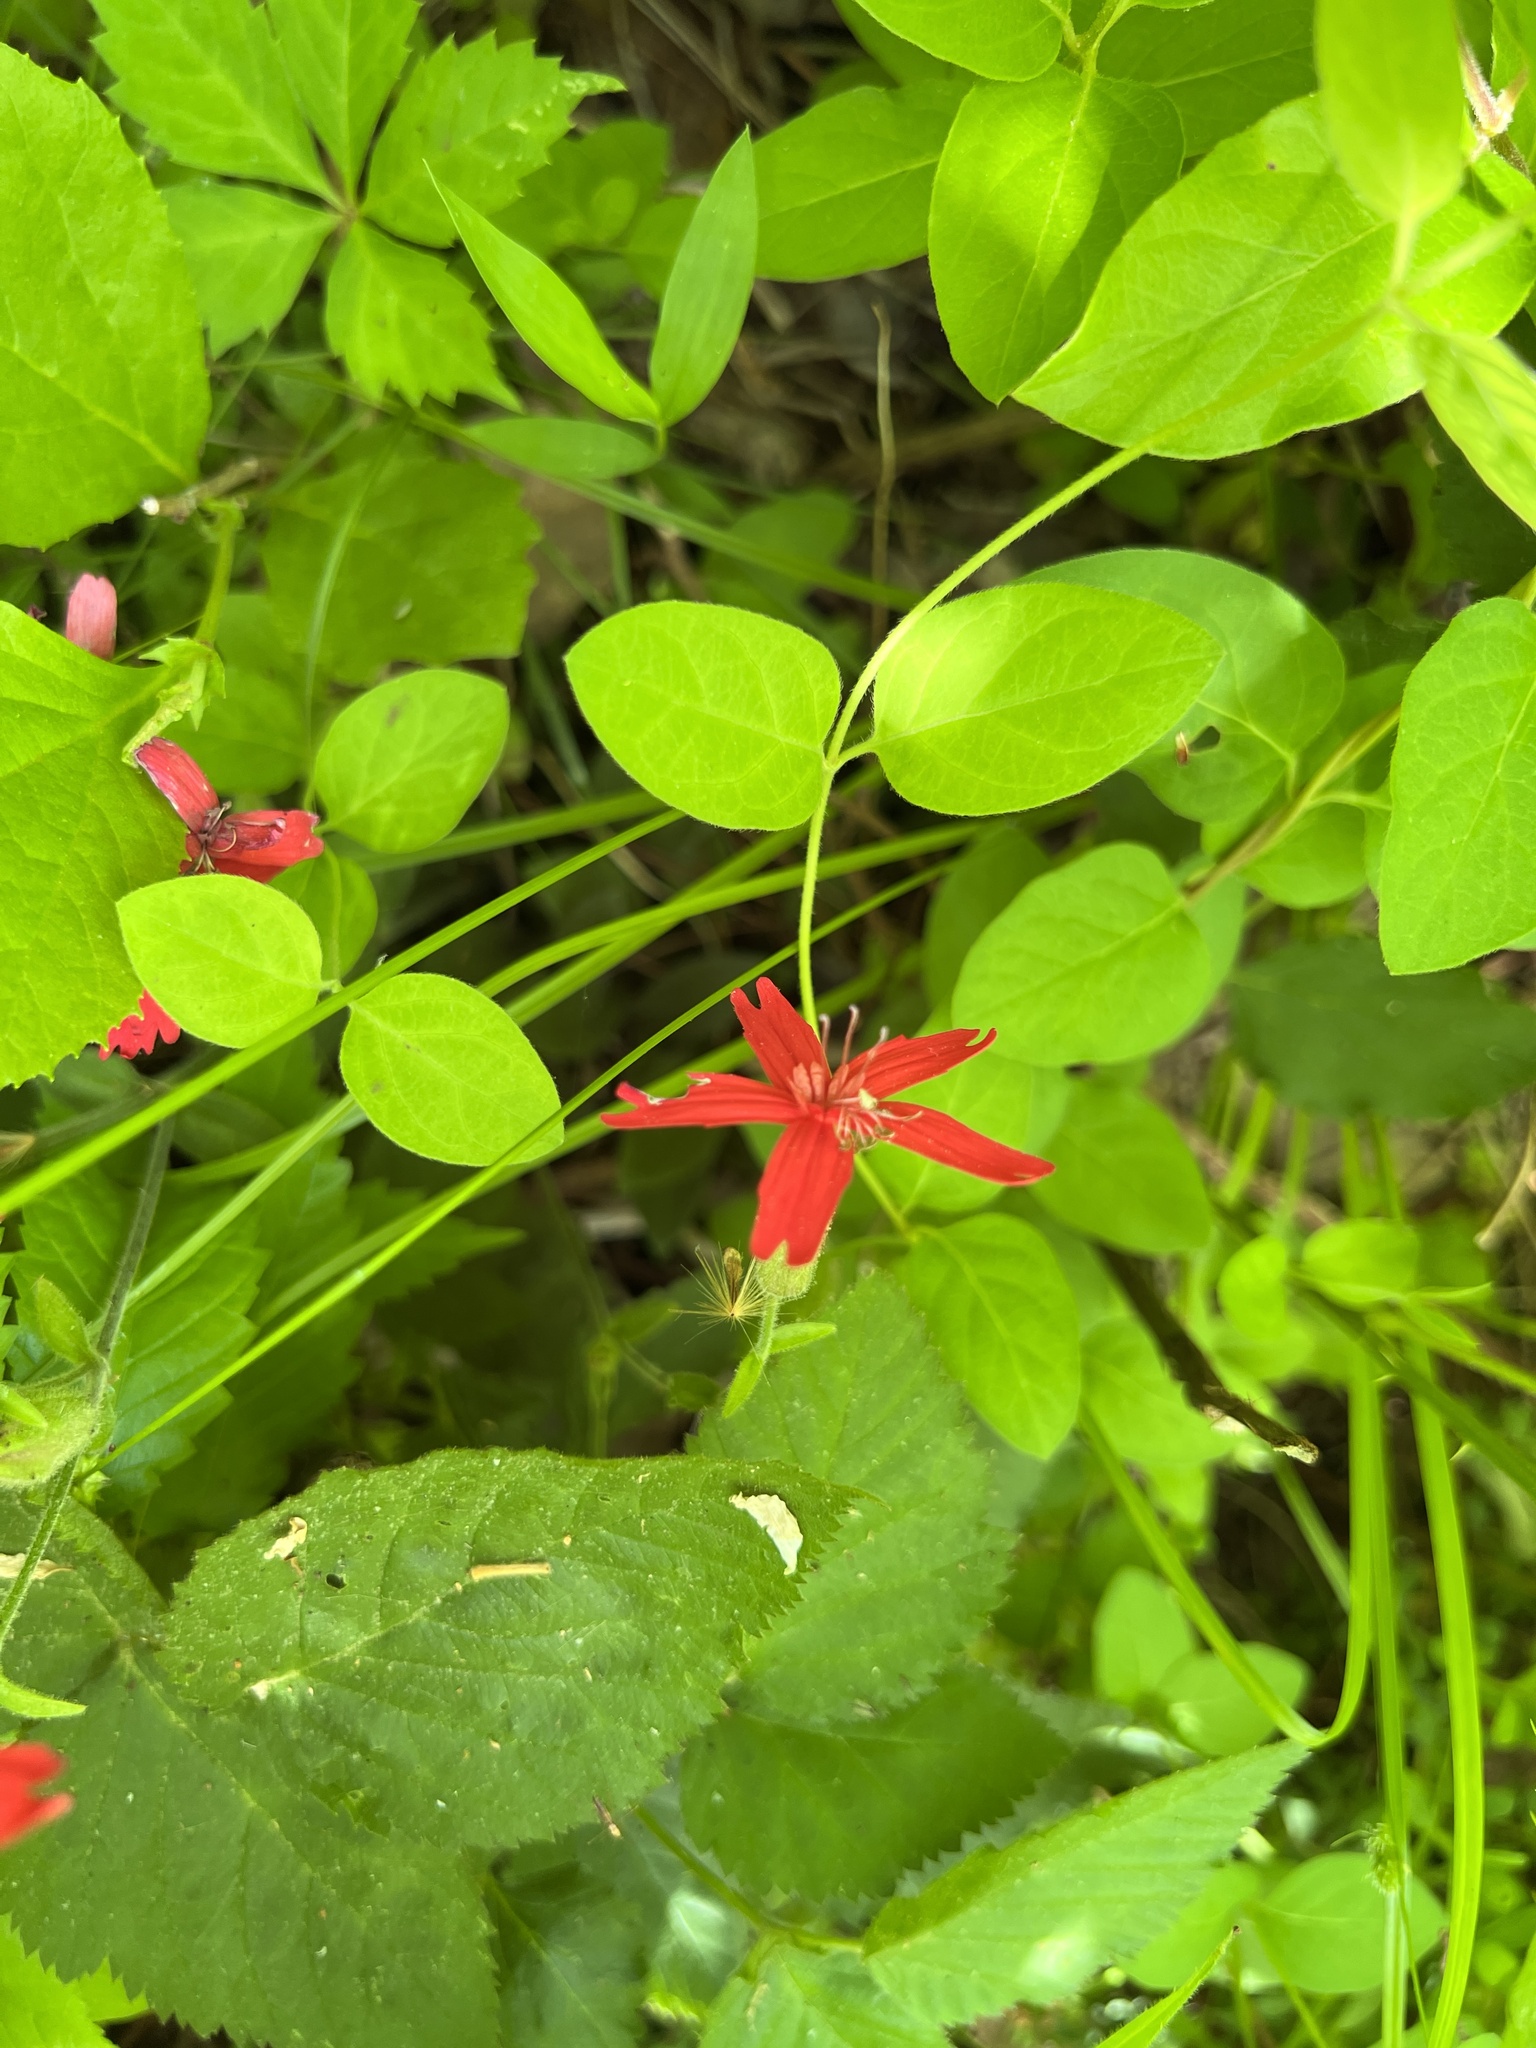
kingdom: Plantae
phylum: Tracheophyta
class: Magnoliopsida
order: Caryophyllales
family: Caryophyllaceae
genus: Silene
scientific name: Silene virginica
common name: Fire-pink
